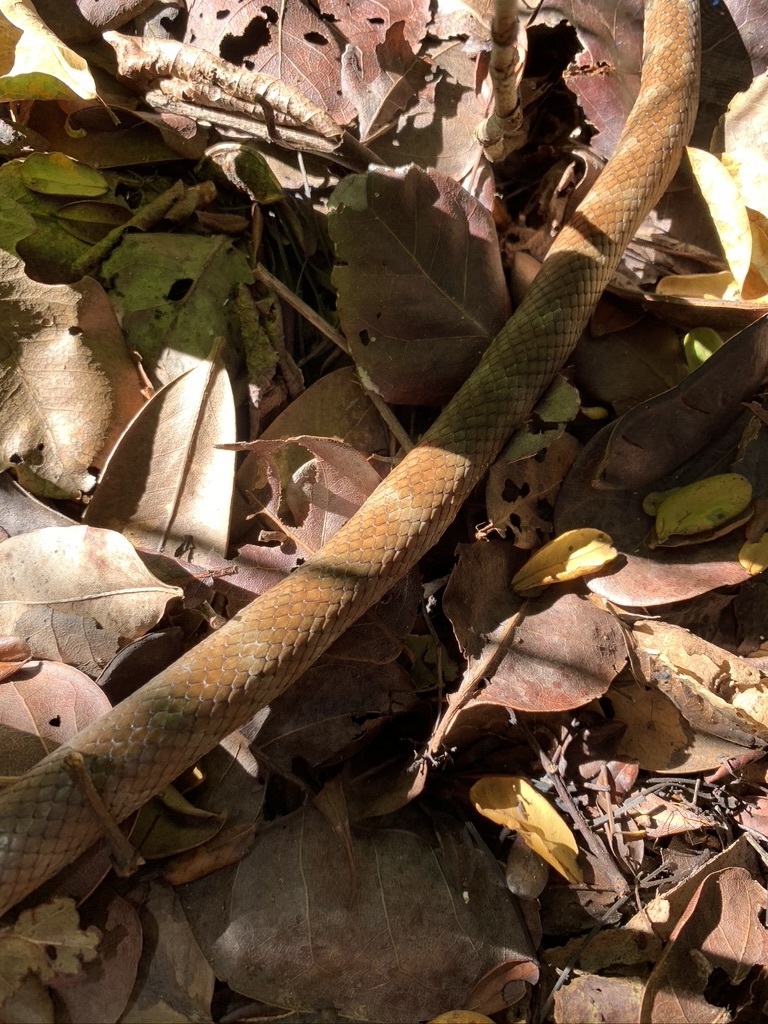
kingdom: Animalia
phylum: Chordata
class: Squamata
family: Colubridae
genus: Cubophis
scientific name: Cubophis vudii
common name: Bahamian racer
